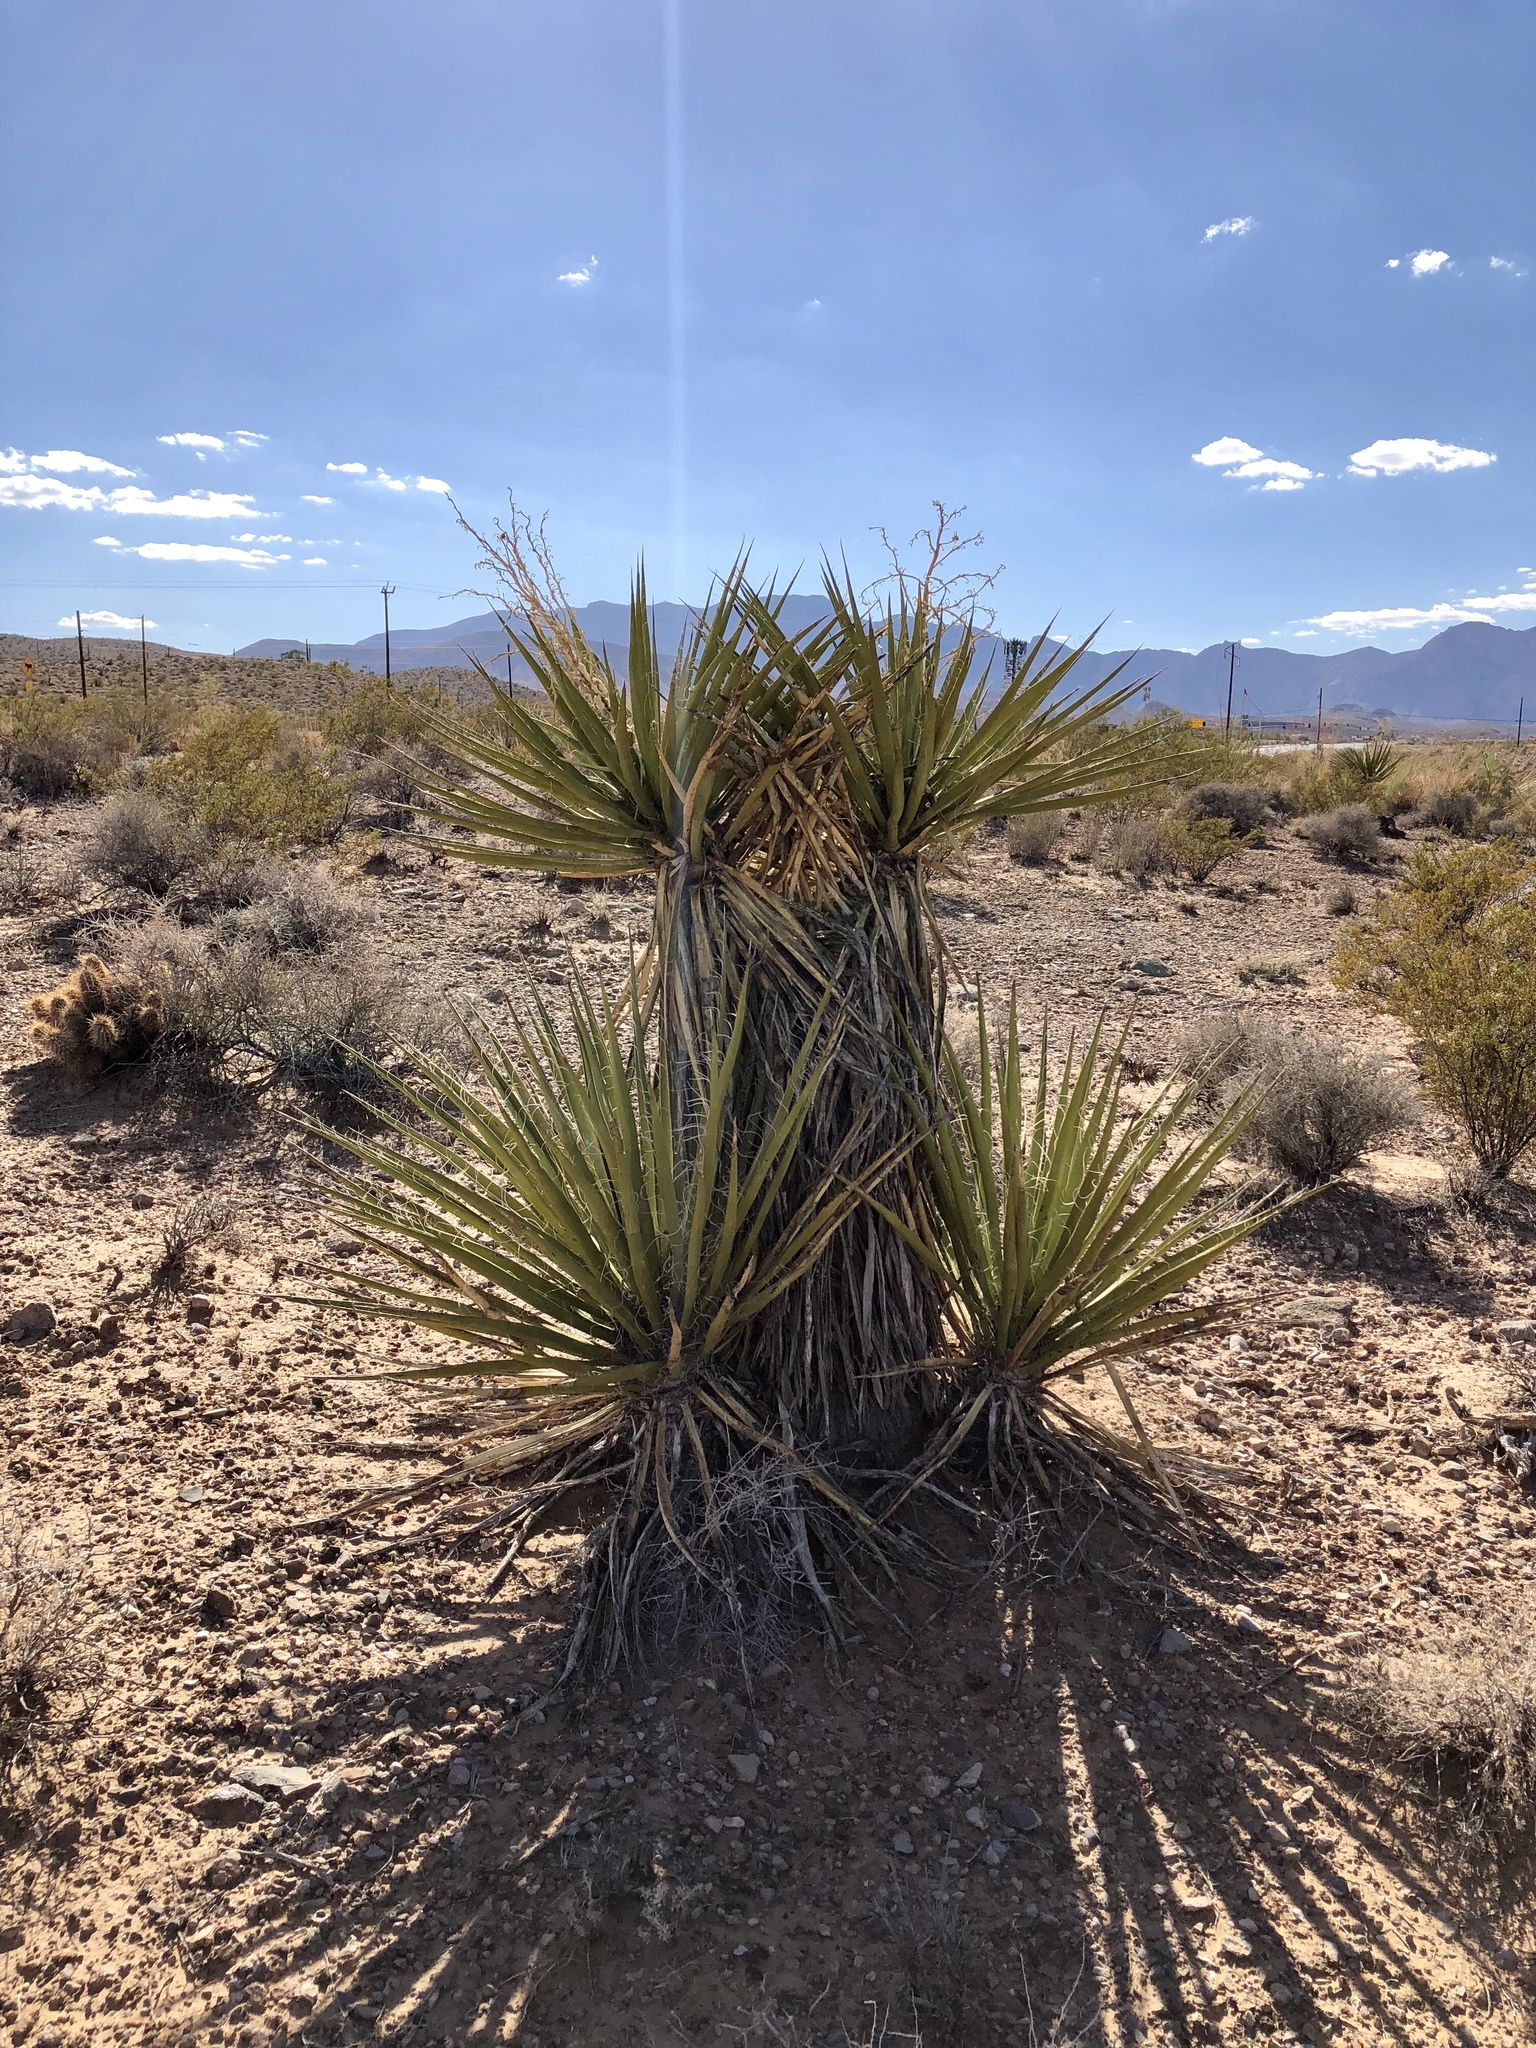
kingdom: Plantae
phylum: Tracheophyta
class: Liliopsida
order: Asparagales
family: Asparagaceae
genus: Yucca
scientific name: Yucca schidigera
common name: Mojave yucca
